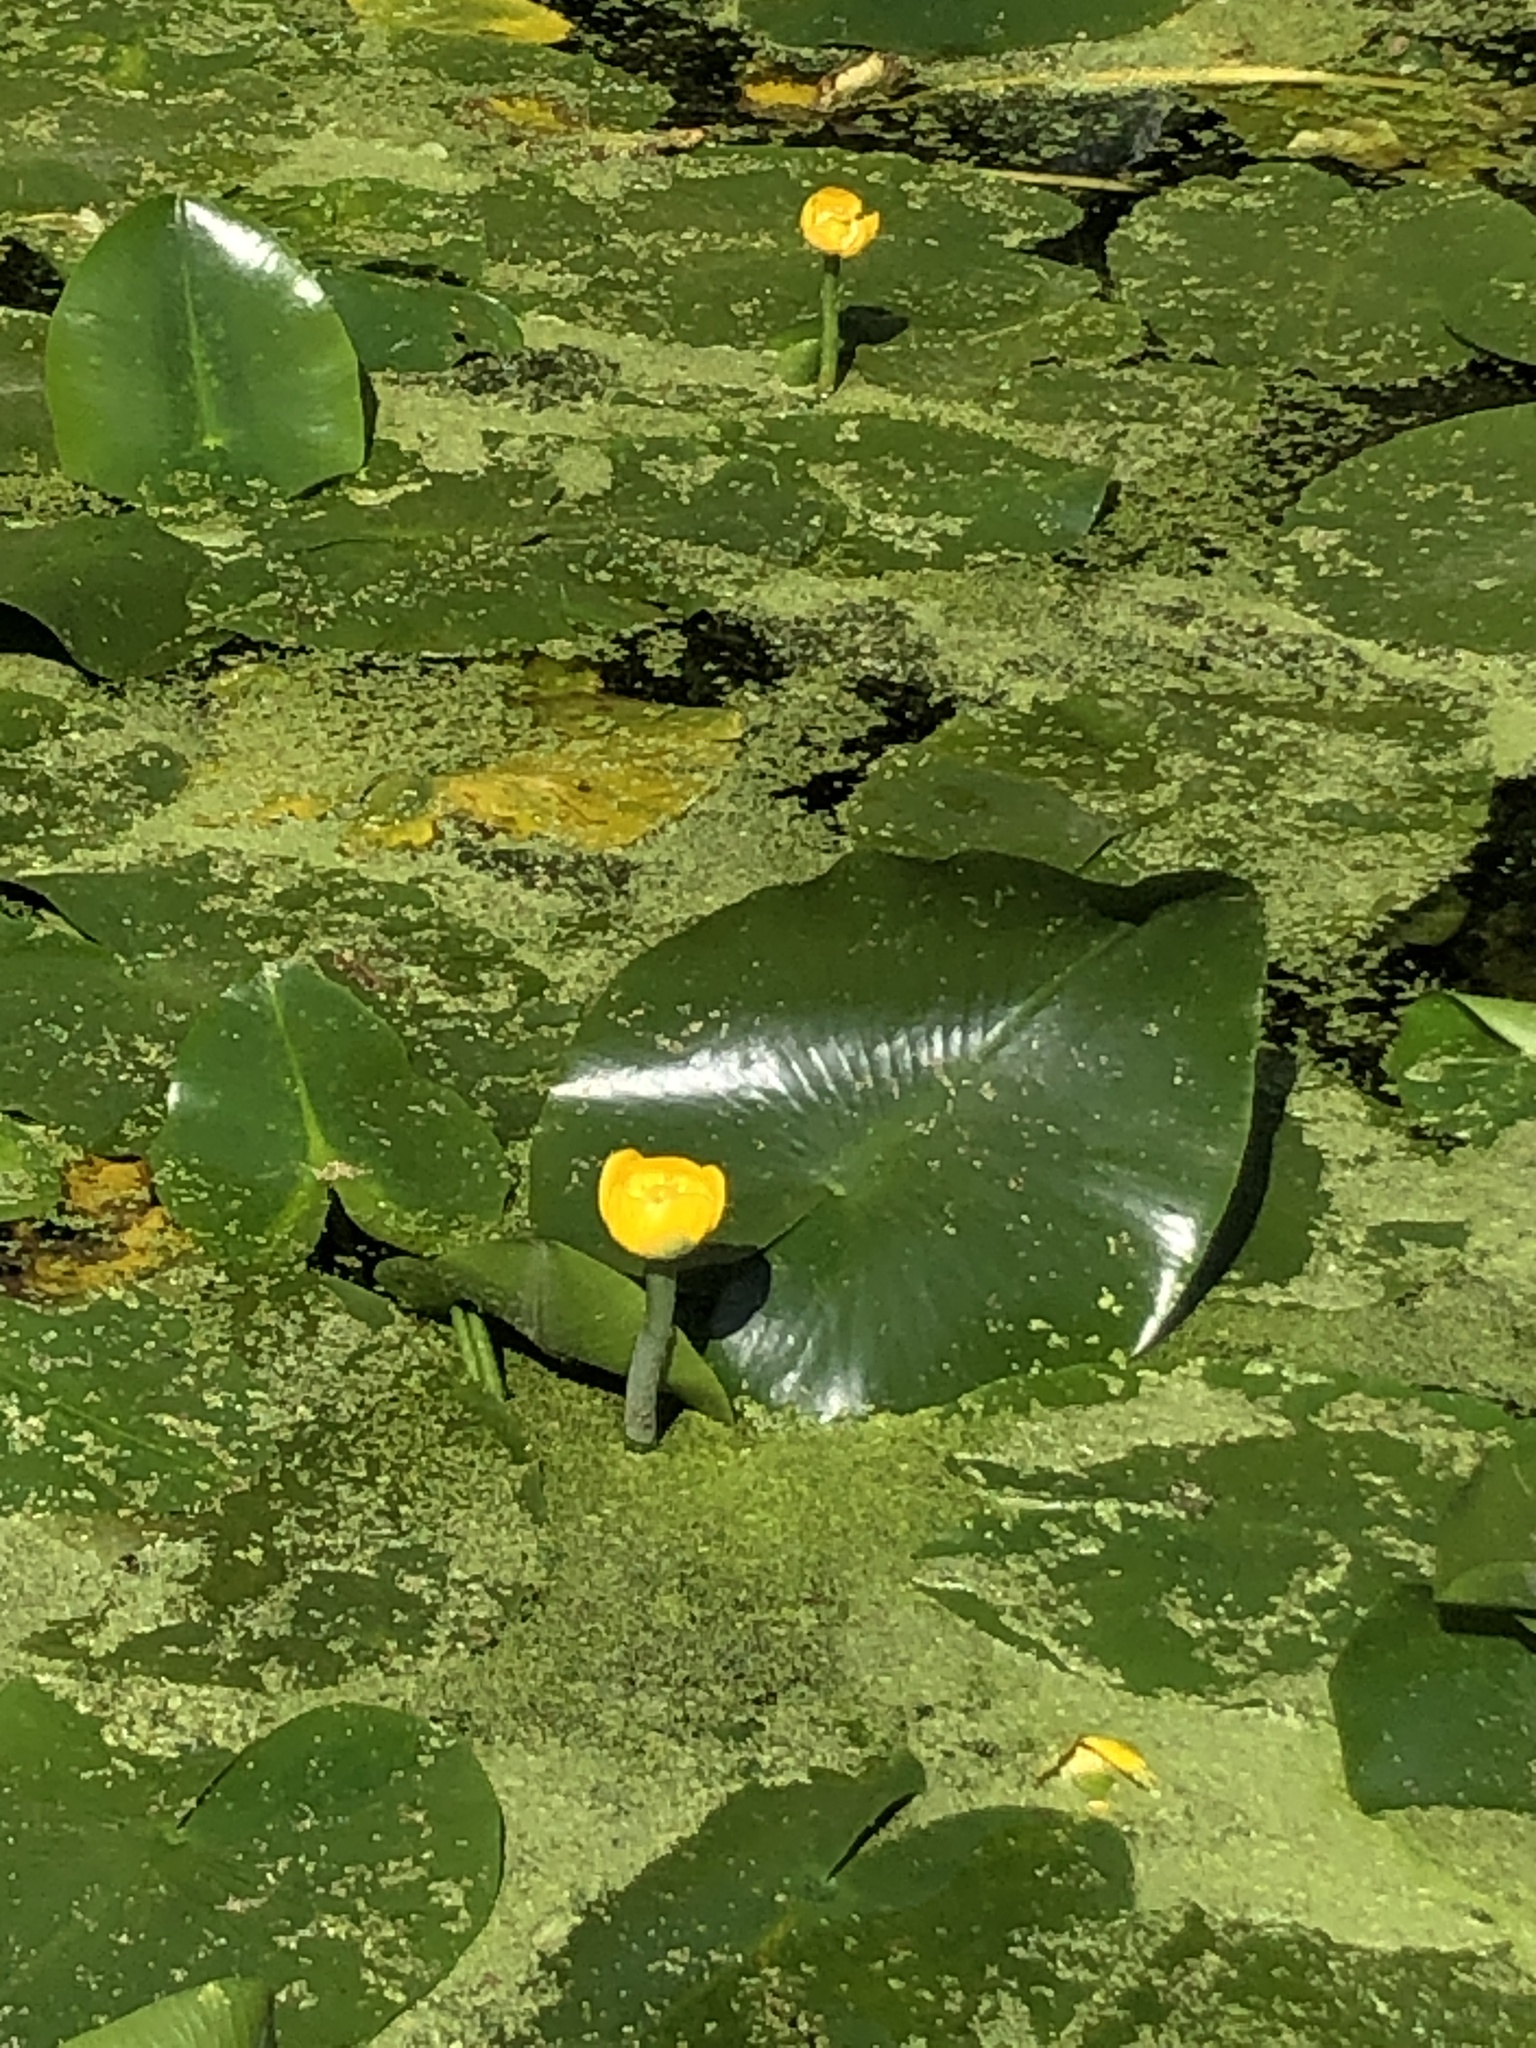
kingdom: Plantae
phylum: Tracheophyta
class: Magnoliopsida
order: Nymphaeales
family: Nymphaeaceae
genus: Nuphar
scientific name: Nuphar lutea
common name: Yellow water-lily
